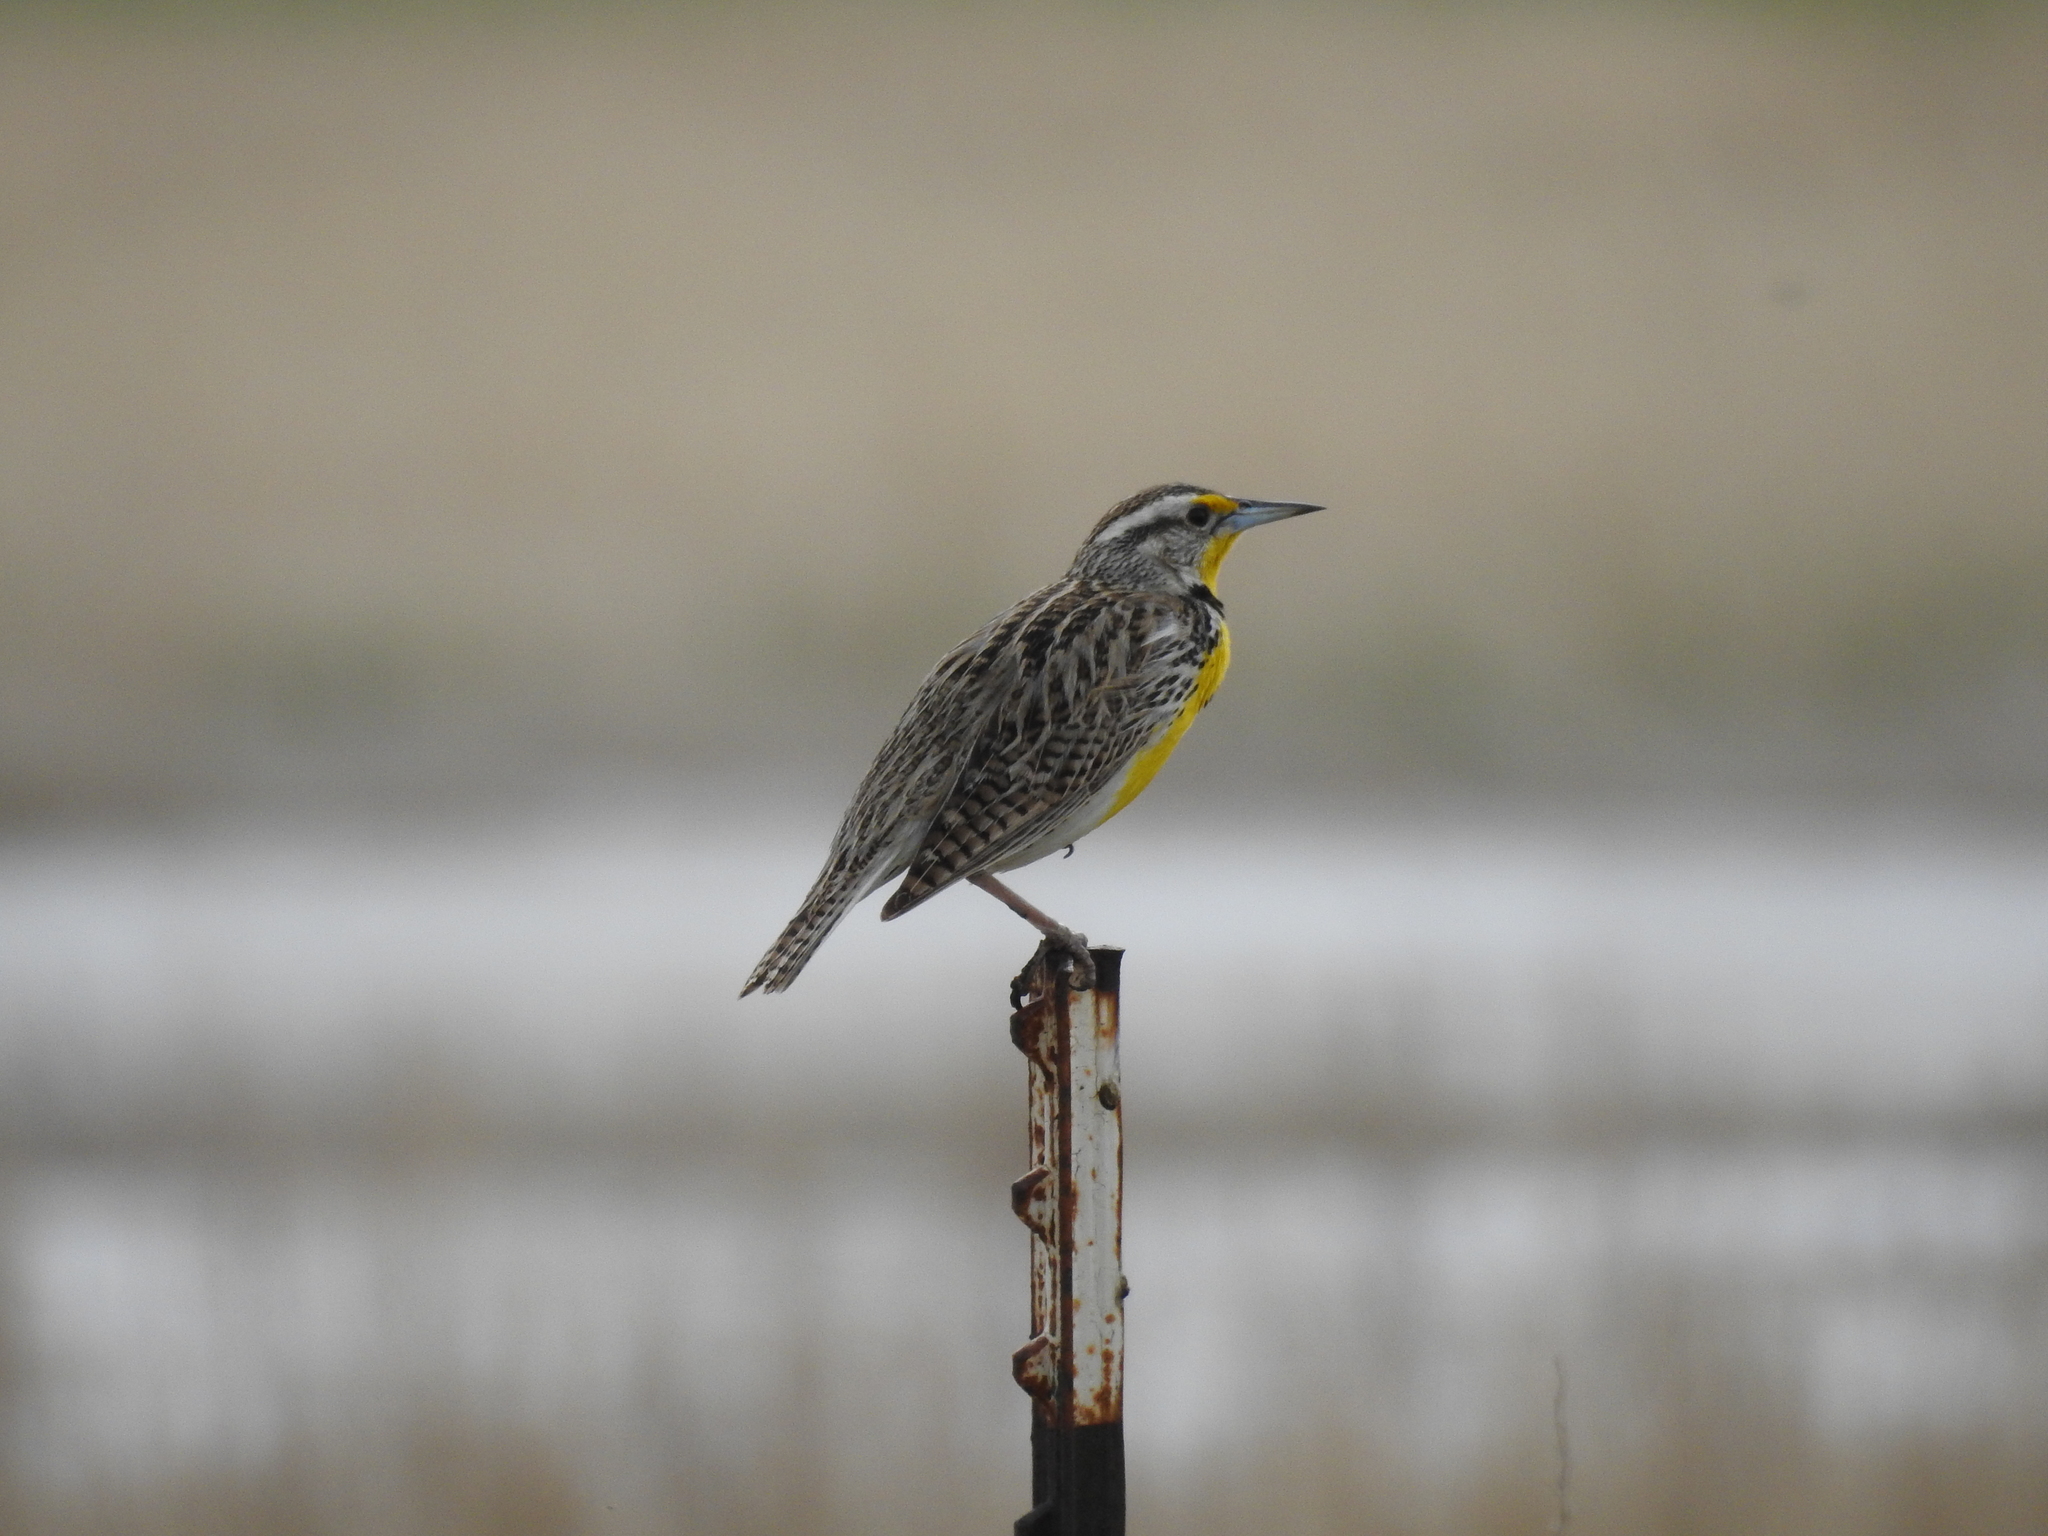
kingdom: Animalia
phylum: Chordata
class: Aves
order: Passeriformes
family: Icteridae
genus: Sturnella
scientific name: Sturnella neglecta
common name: Western meadowlark
